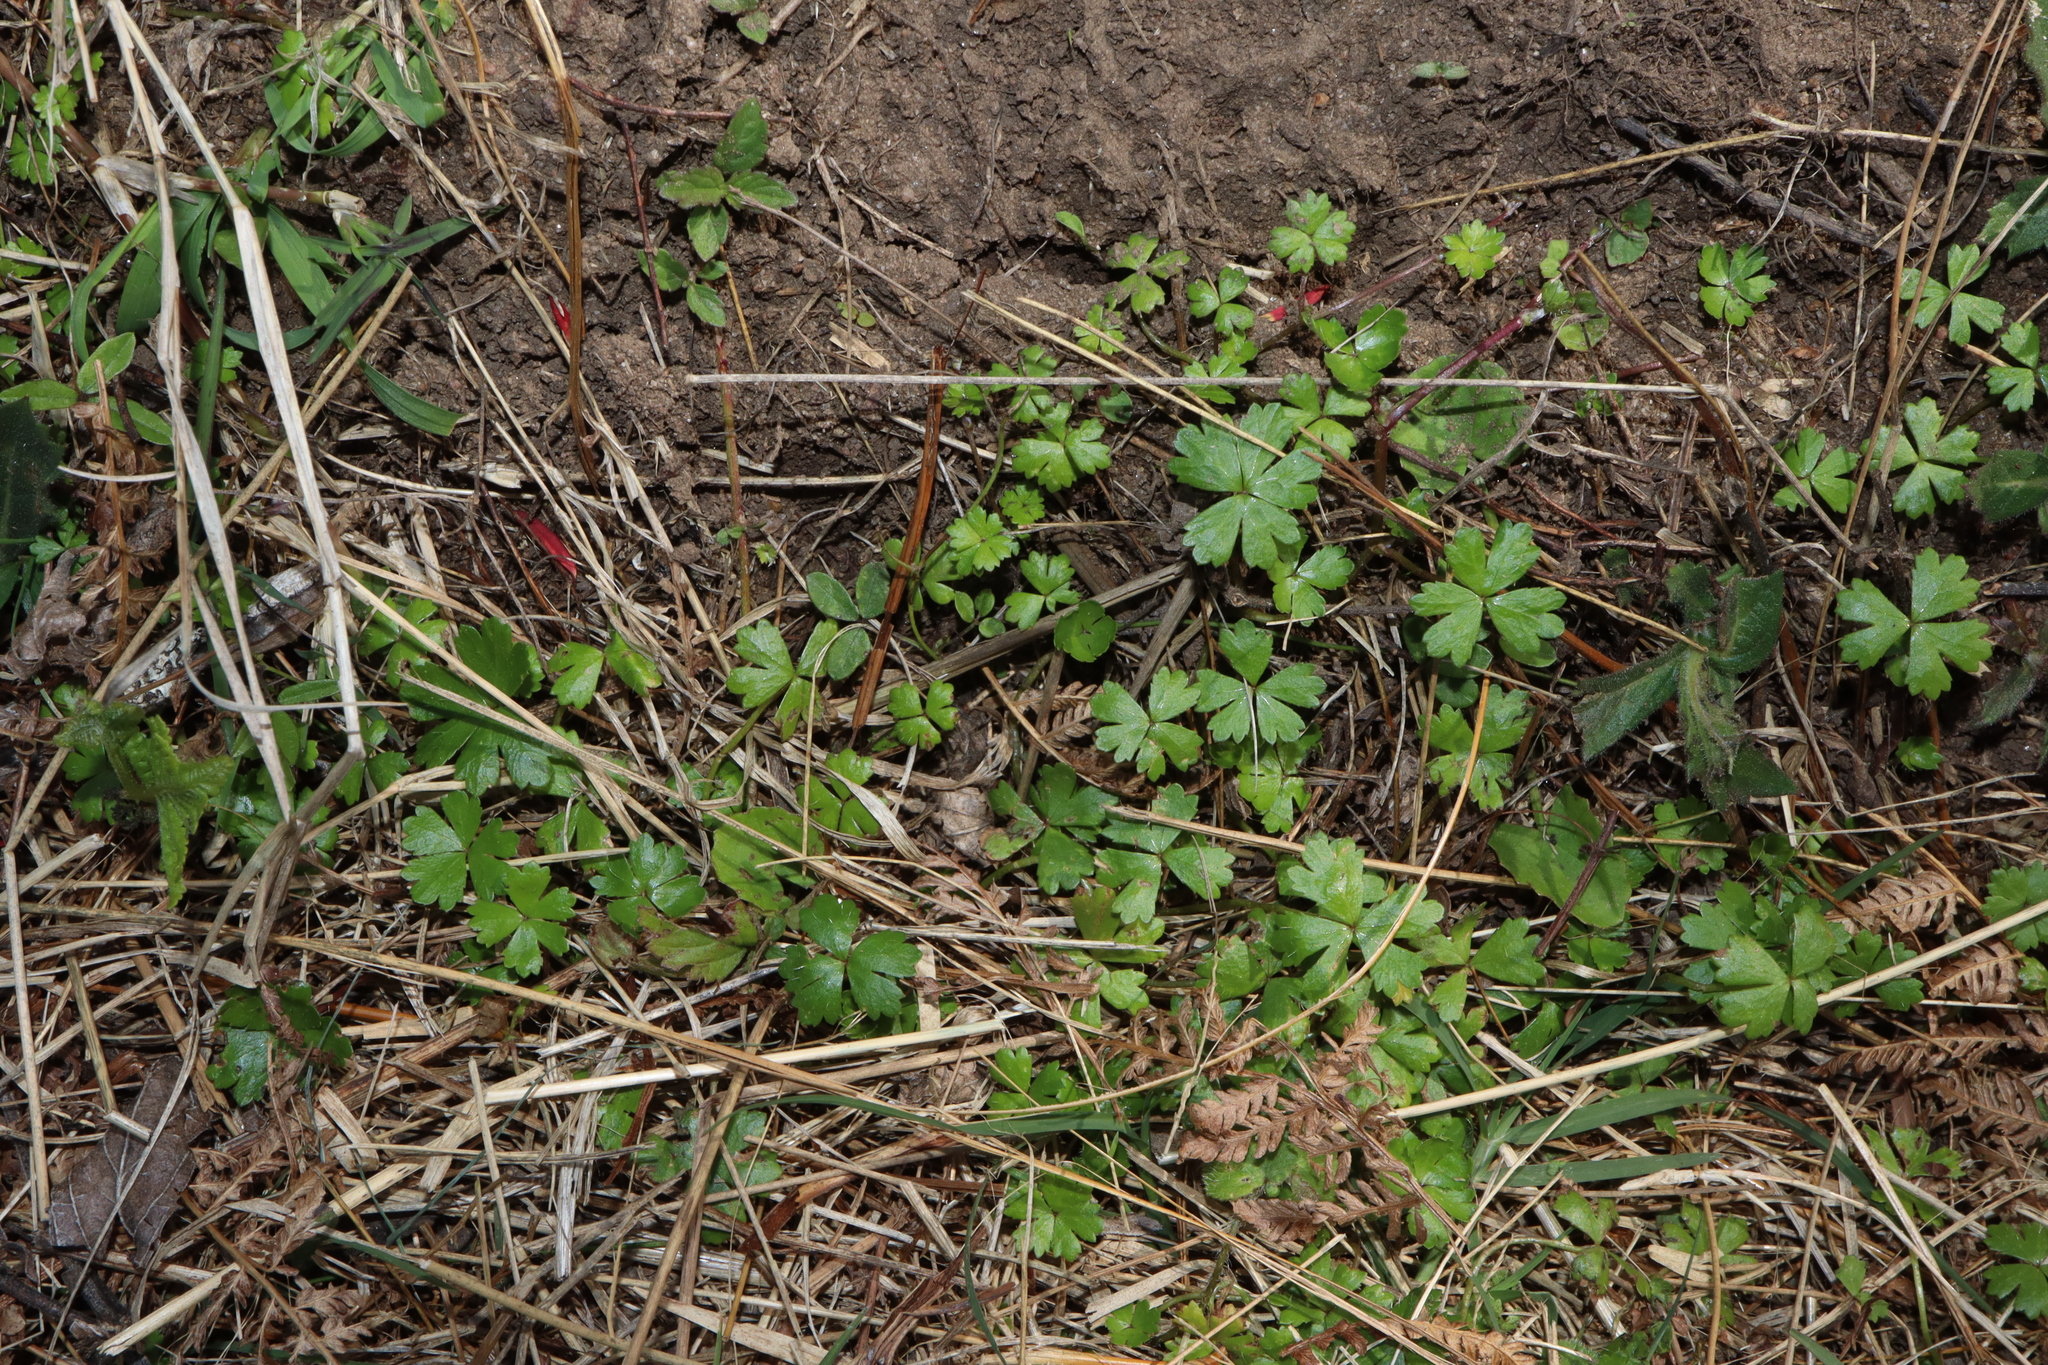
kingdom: Plantae
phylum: Tracheophyta
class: Magnoliopsida
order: Apiales
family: Araliaceae
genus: Hydrocotyle
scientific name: Hydrocotyle tripartita
